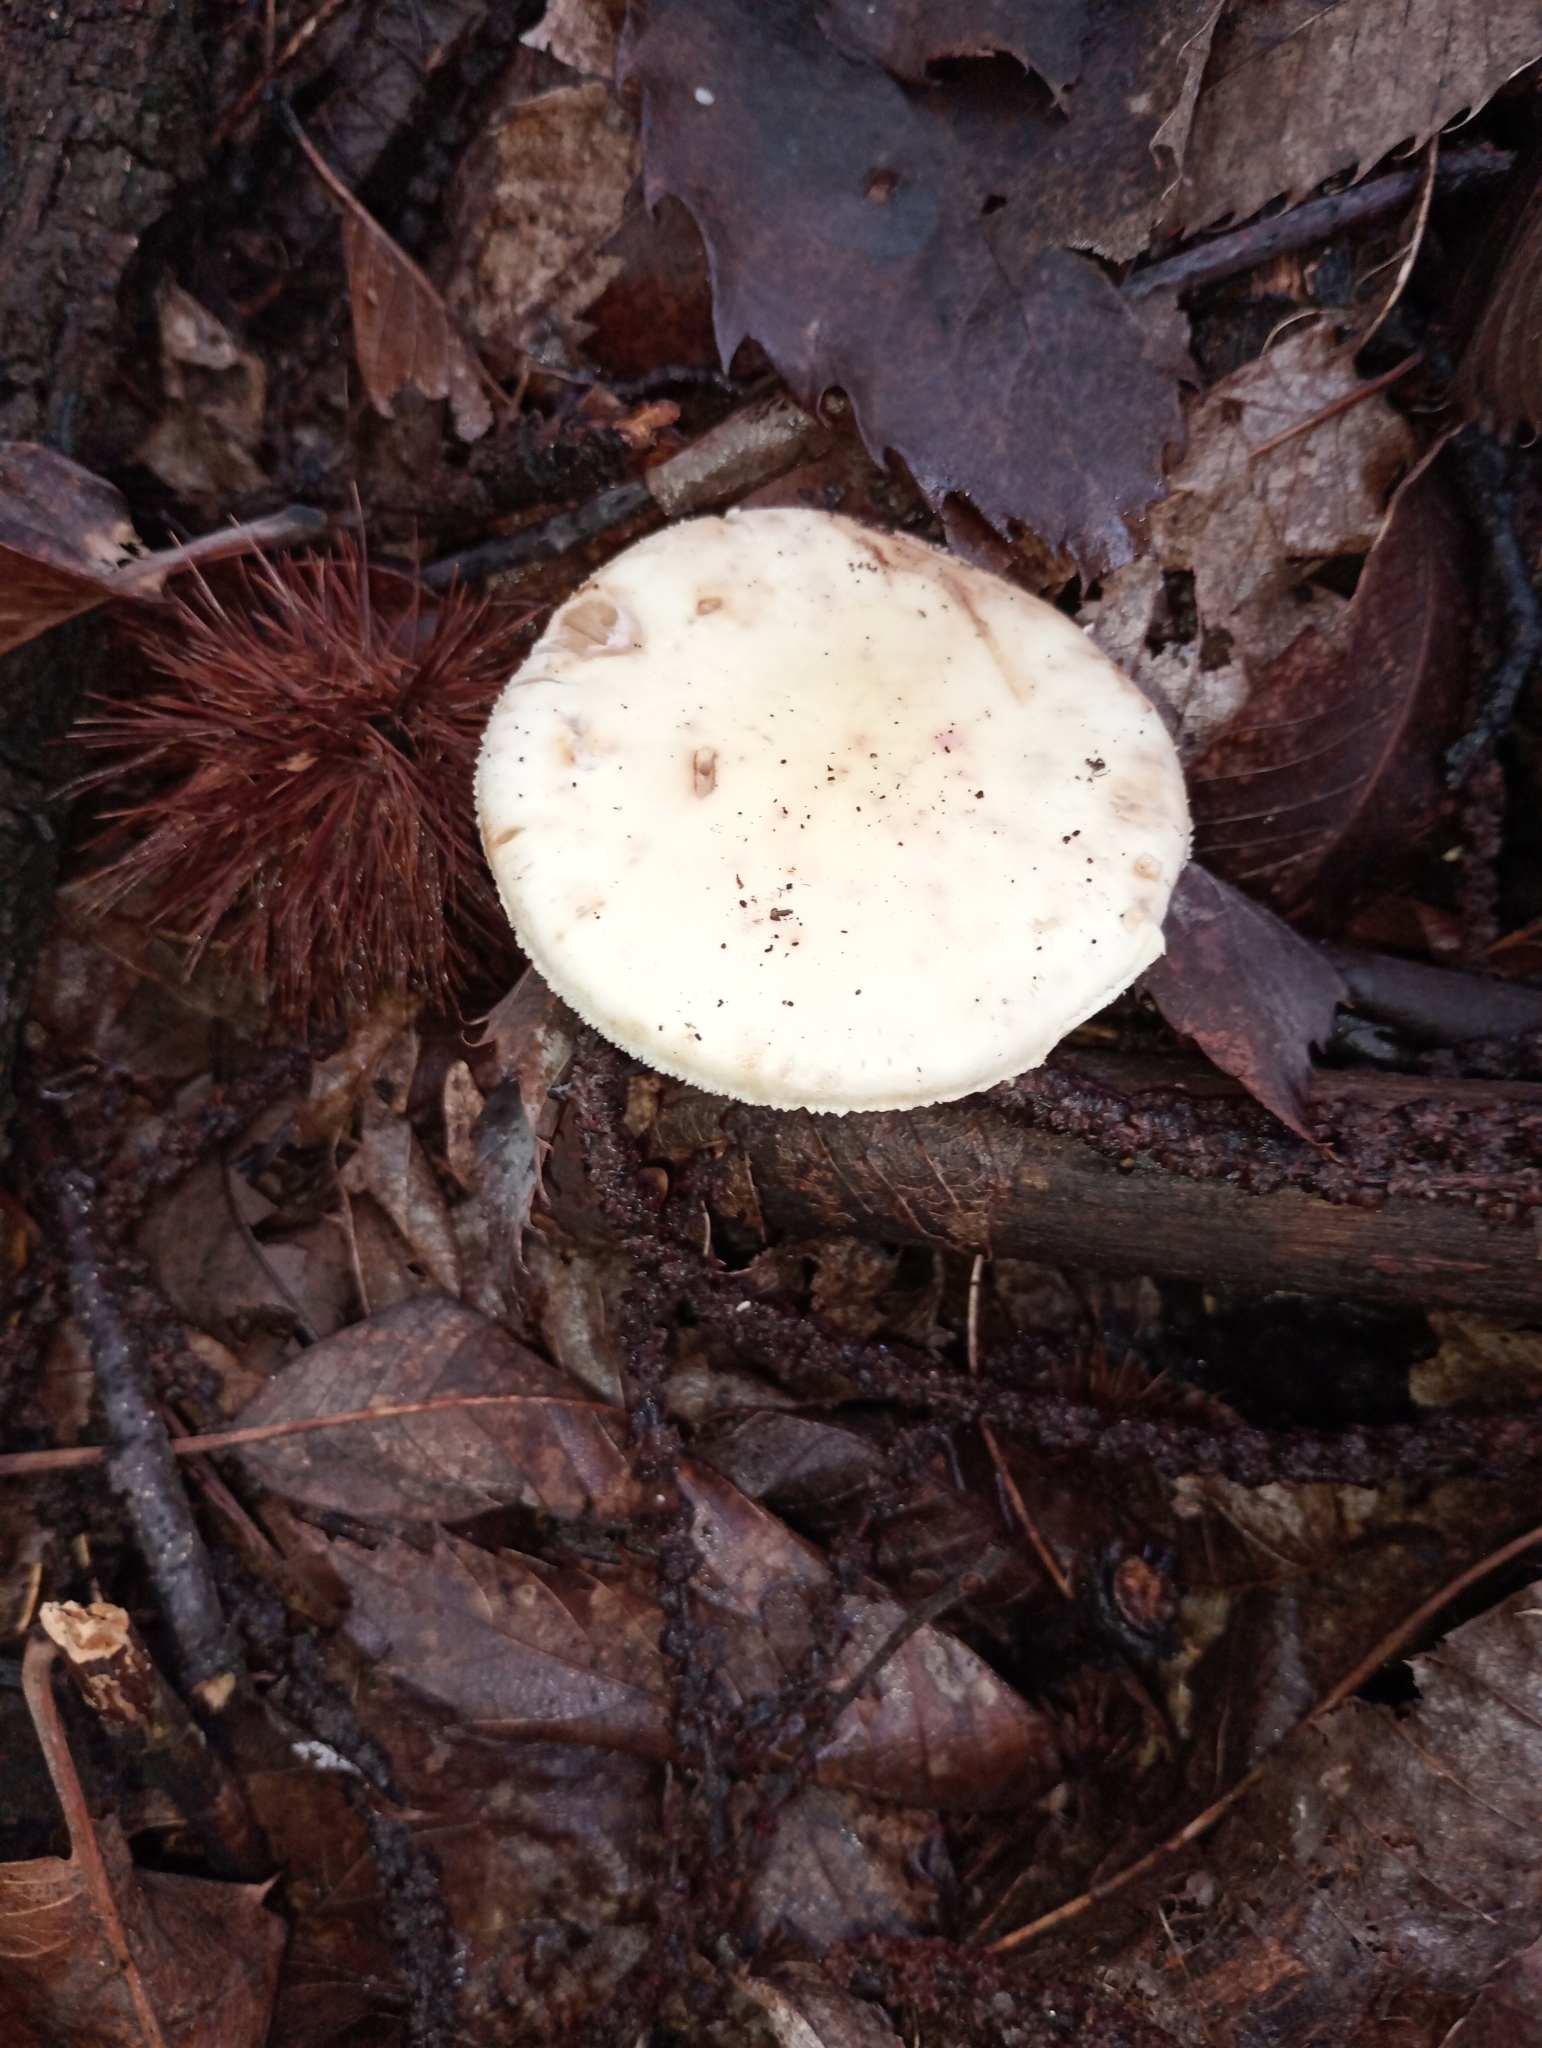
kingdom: Fungi
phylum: Basidiomycota
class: Agaricomycetes
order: Agaricales
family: Amanitaceae
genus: Amanita
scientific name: Amanita citrina
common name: False death-cap
